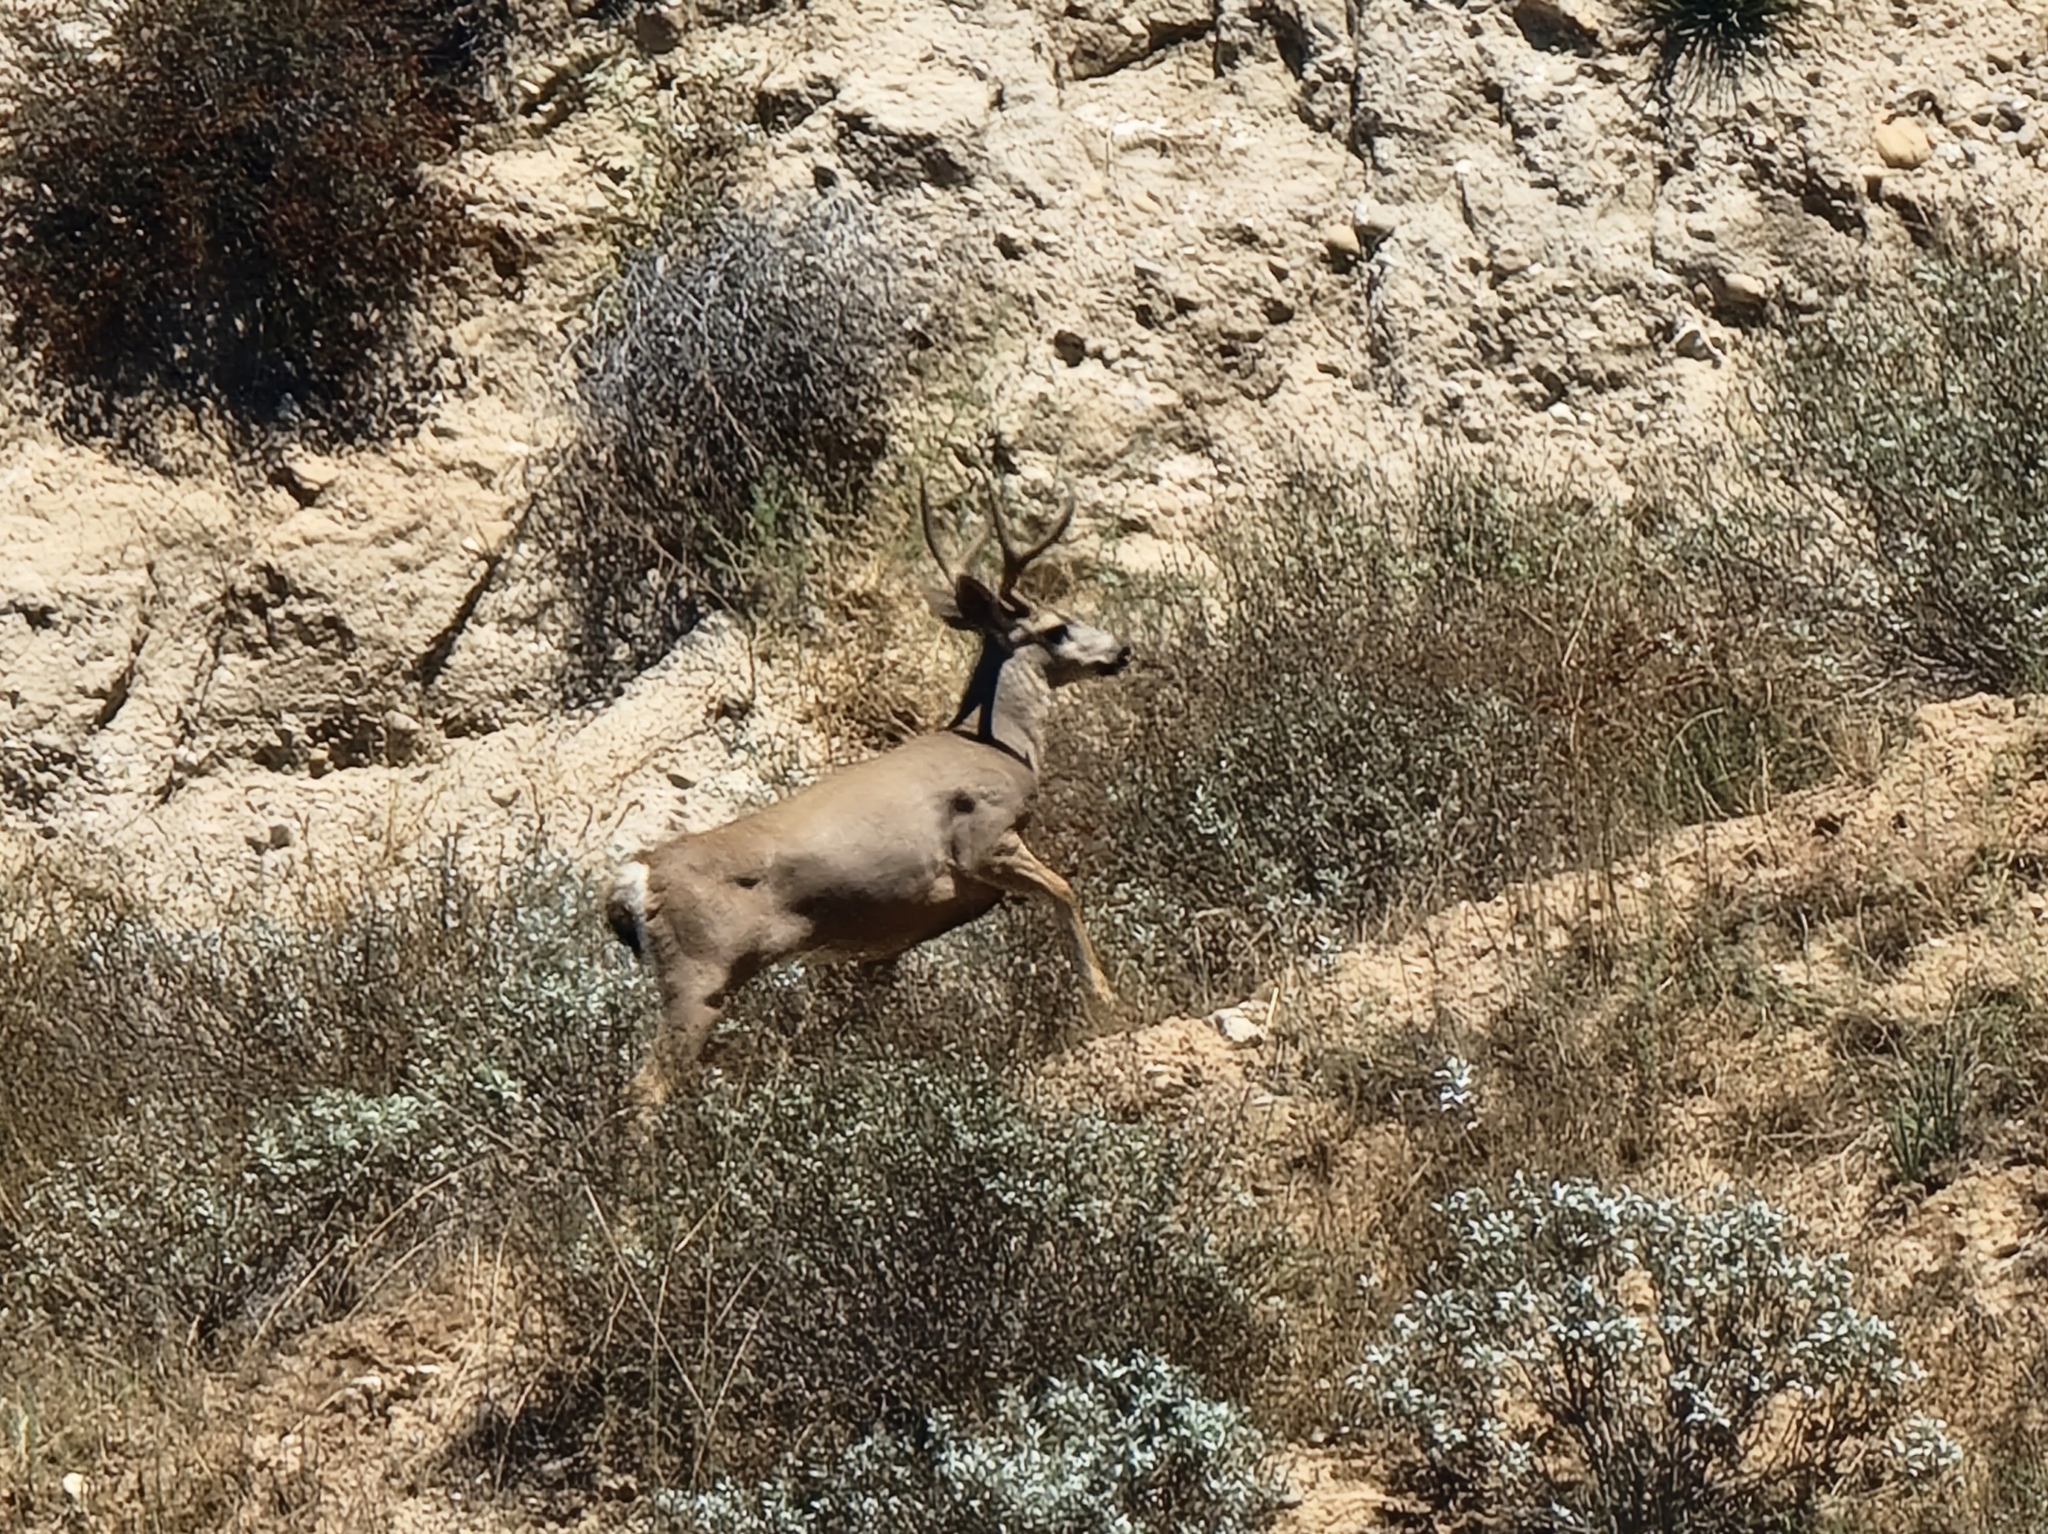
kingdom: Animalia
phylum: Chordata
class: Mammalia
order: Artiodactyla
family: Cervidae
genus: Odocoileus
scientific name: Odocoileus hemionus
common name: Mule deer
